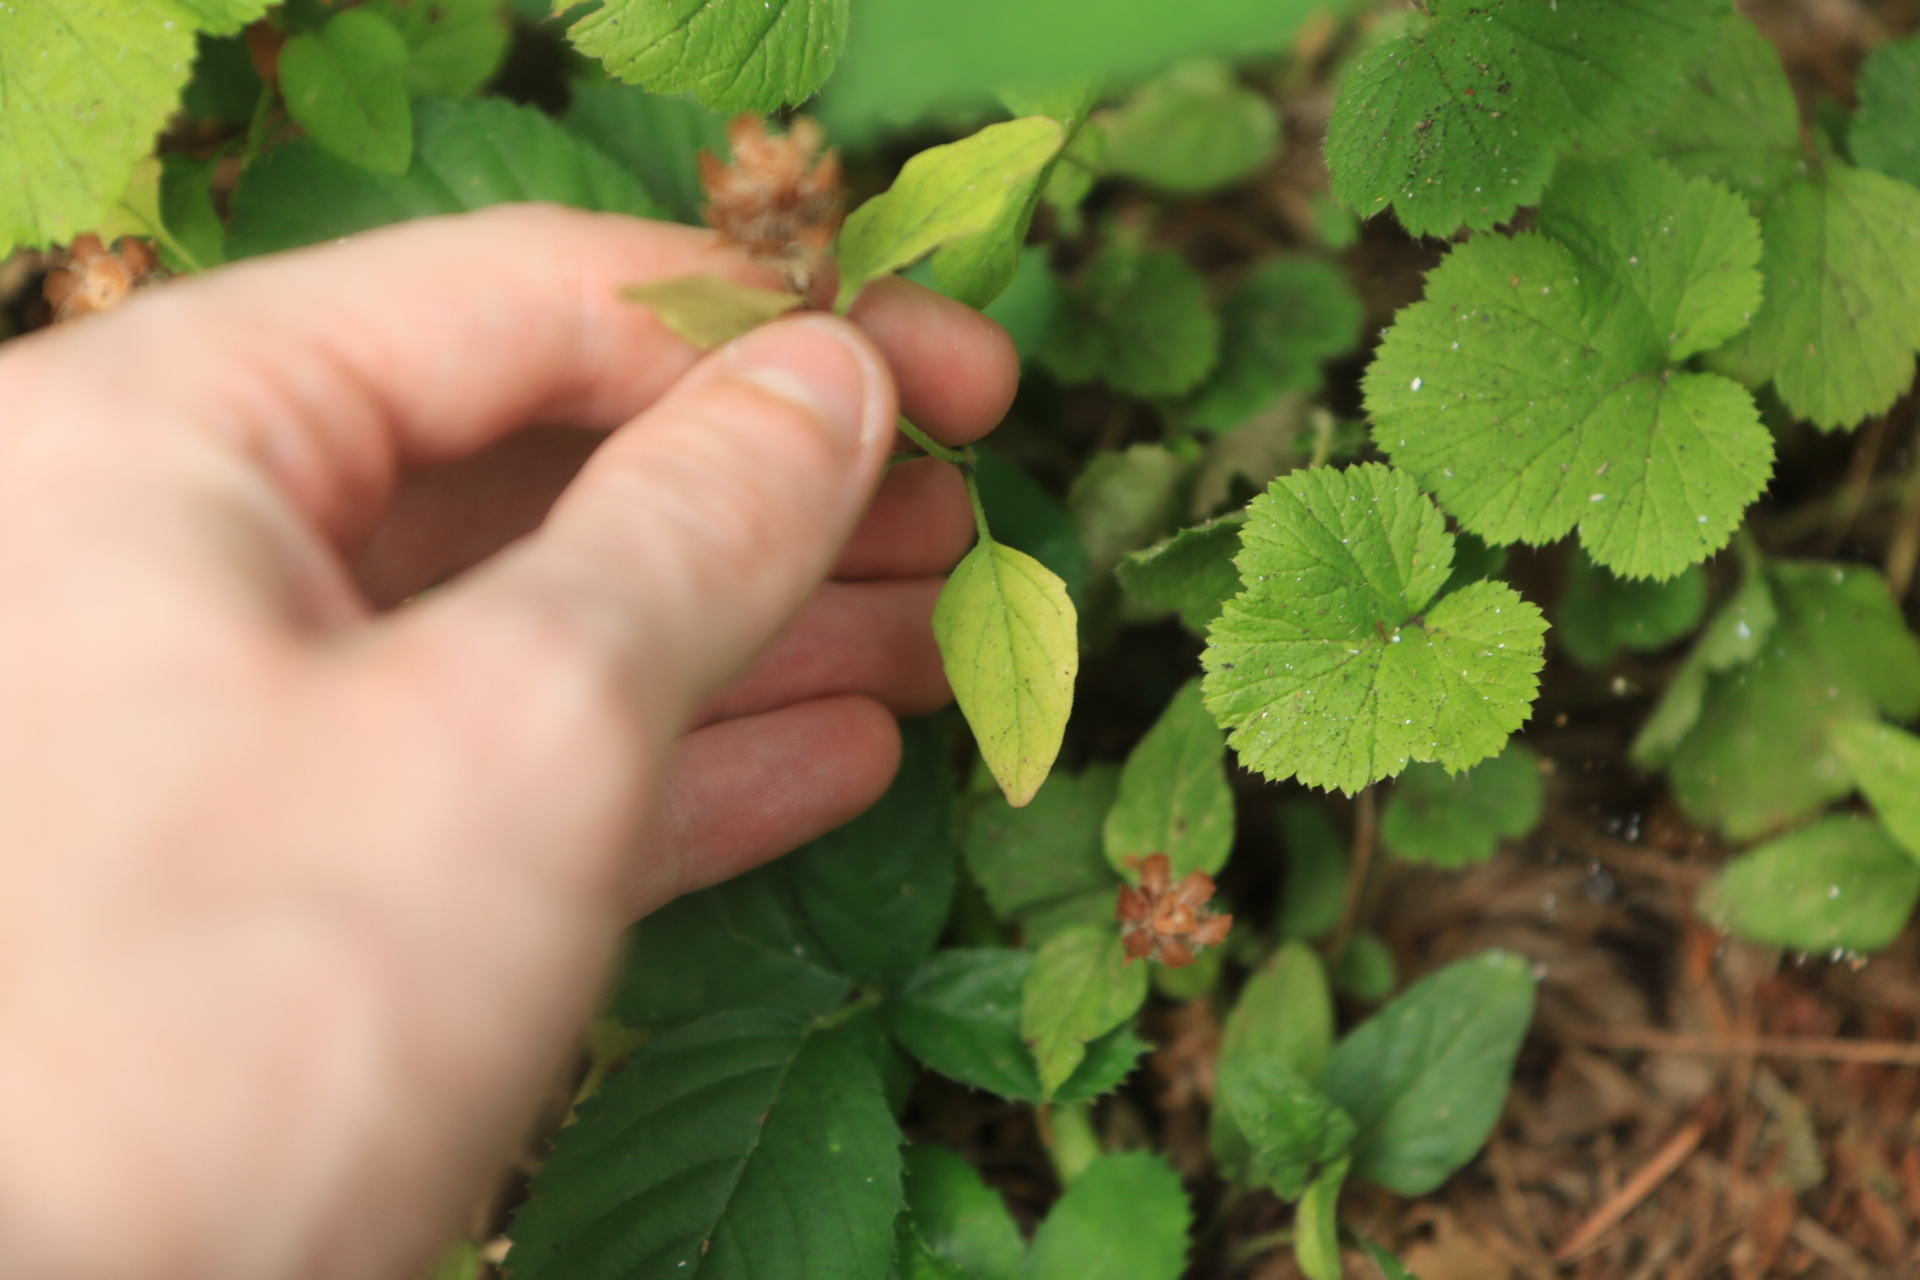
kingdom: Plantae
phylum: Tracheophyta
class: Magnoliopsida
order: Lamiales
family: Lamiaceae
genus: Prunella
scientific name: Prunella vulgaris
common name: Heal-all
